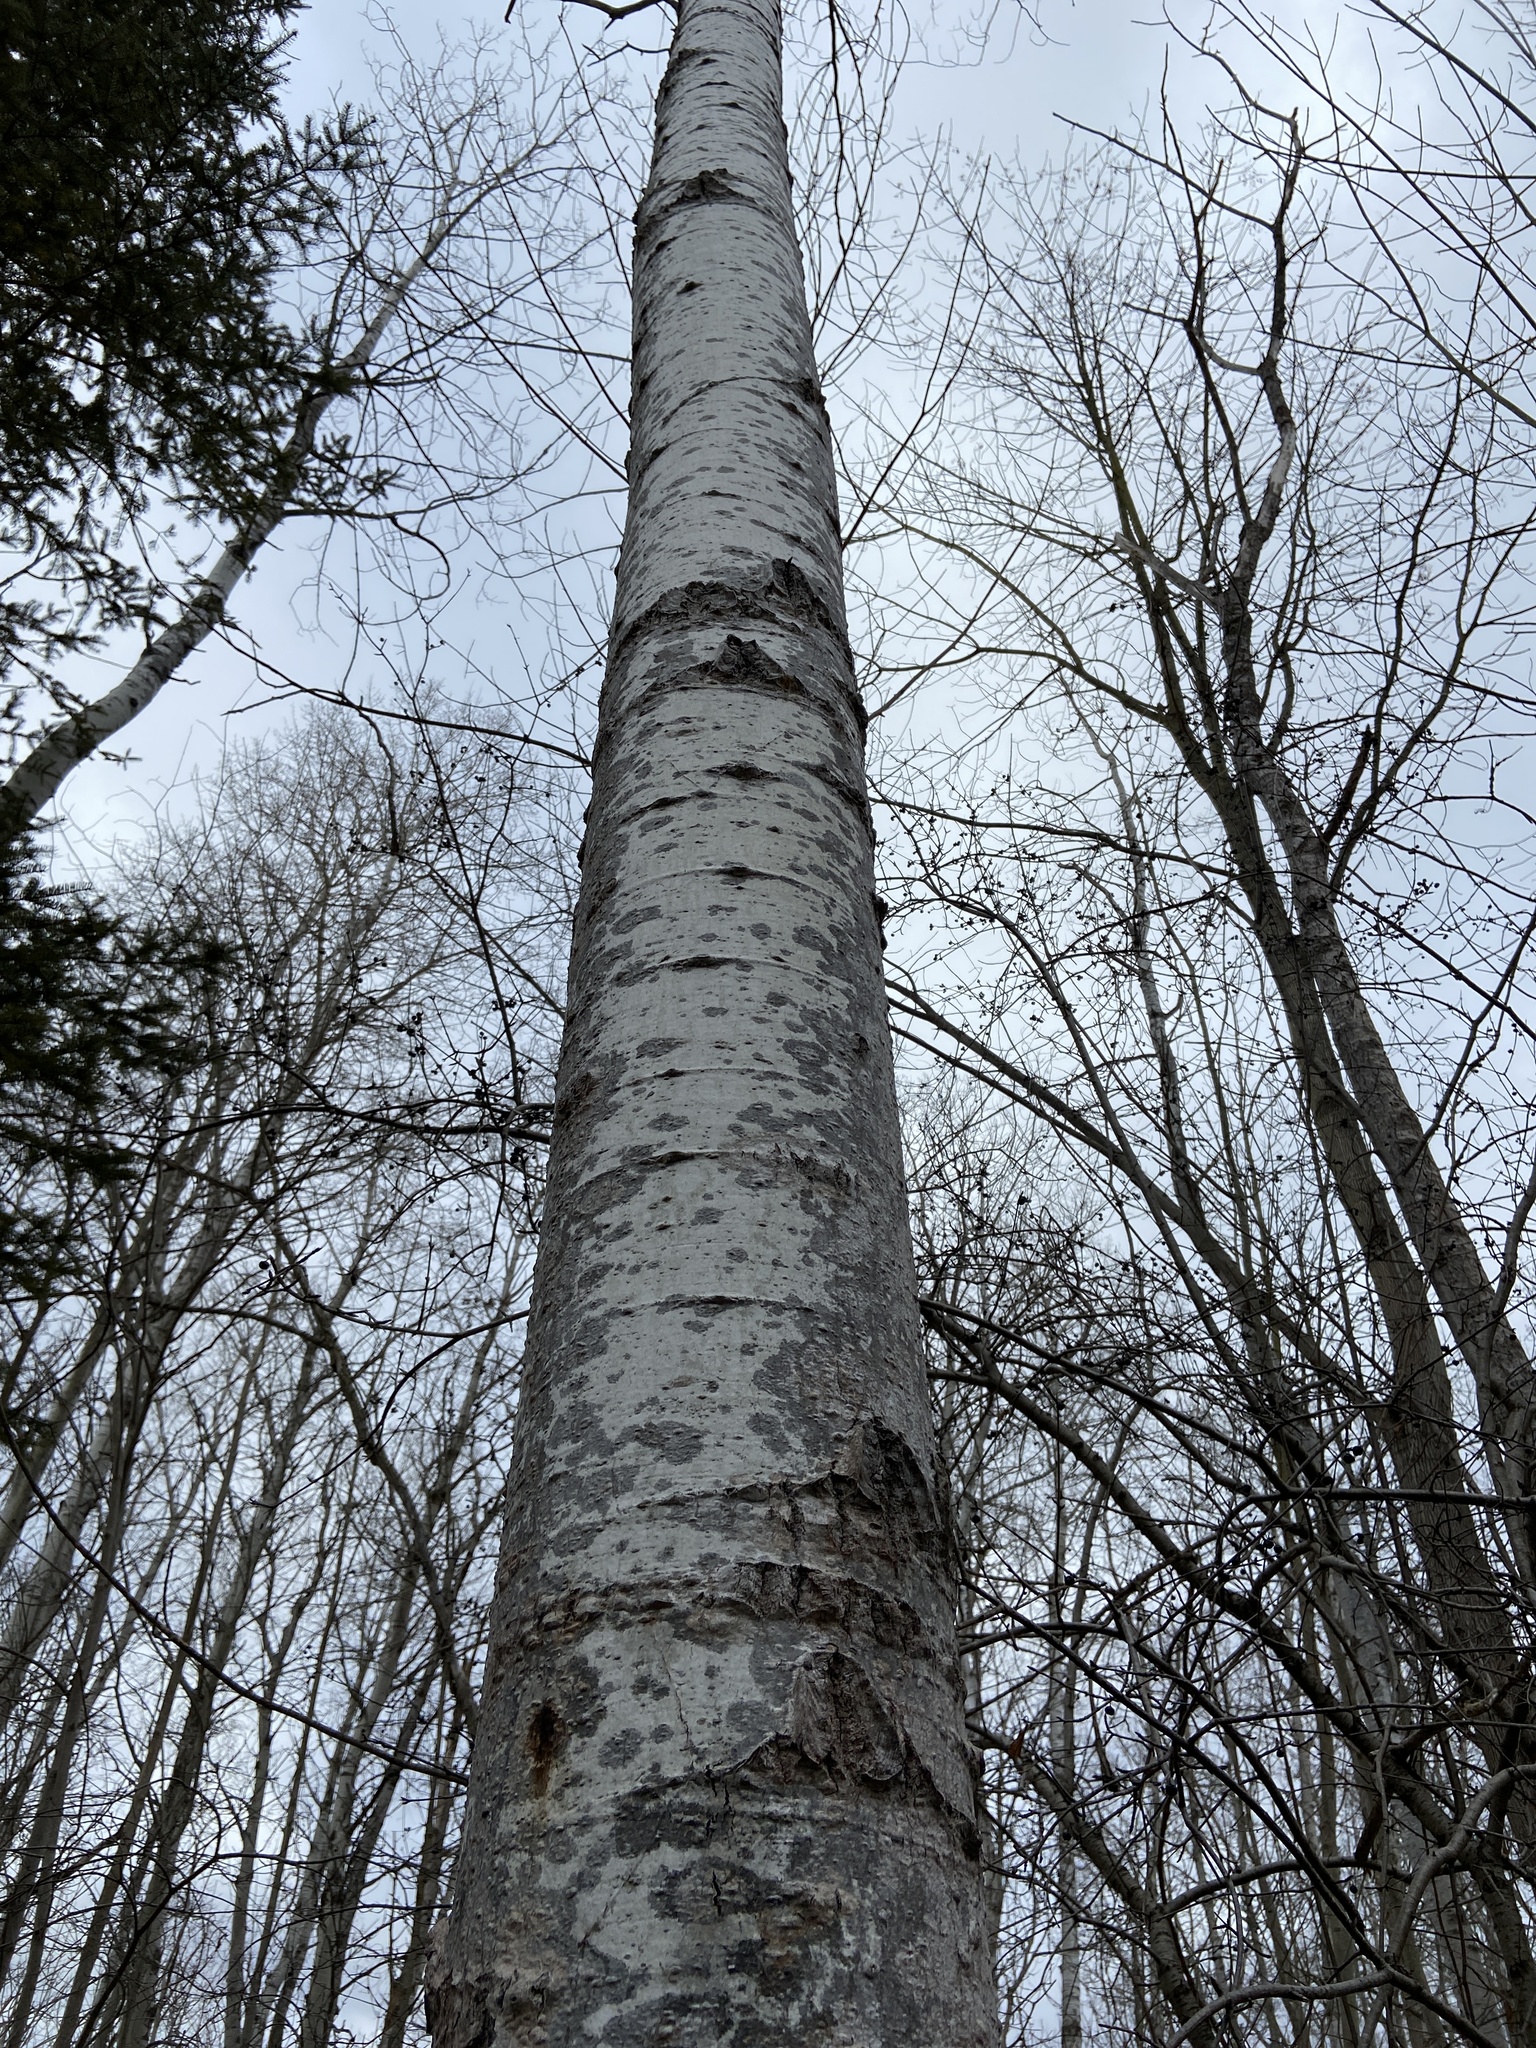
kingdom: Plantae
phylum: Tracheophyta
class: Magnoliopsida
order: Malpighiales
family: Salicaceae
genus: Populus
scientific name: Populus tremuloides
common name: Quaking aspen
